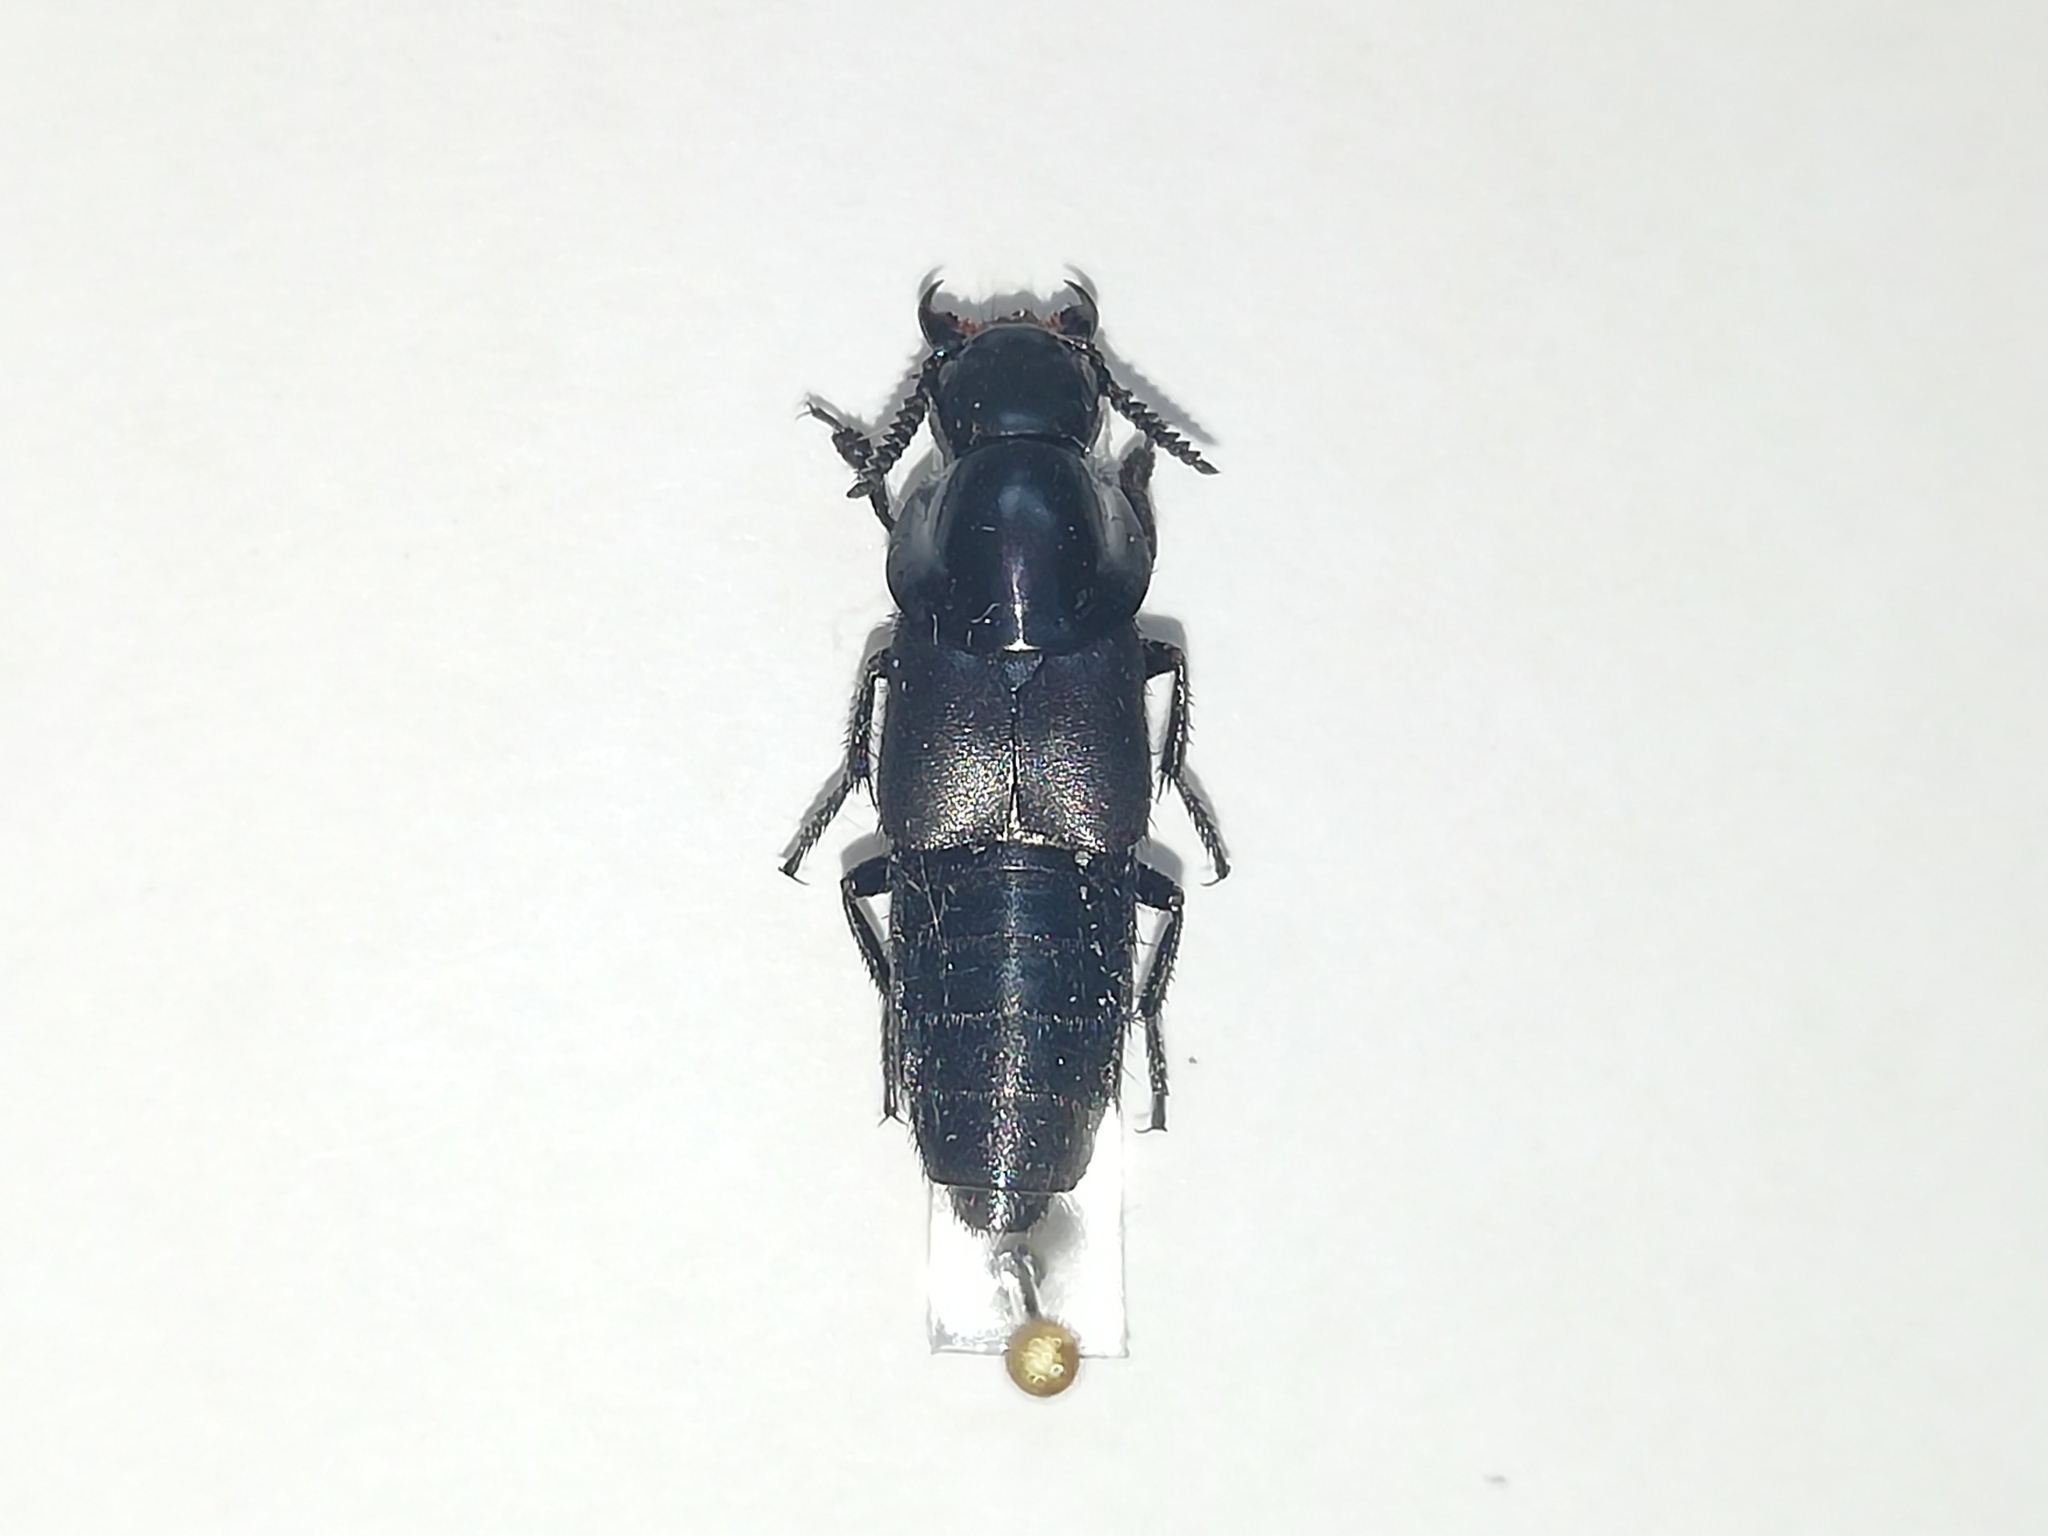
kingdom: Animalia
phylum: Arthropoda
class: Insecta
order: Coleoptera
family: Staphylinidae
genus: Quedius
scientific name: Quedius dilatatus
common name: Hornet rove-beetle
